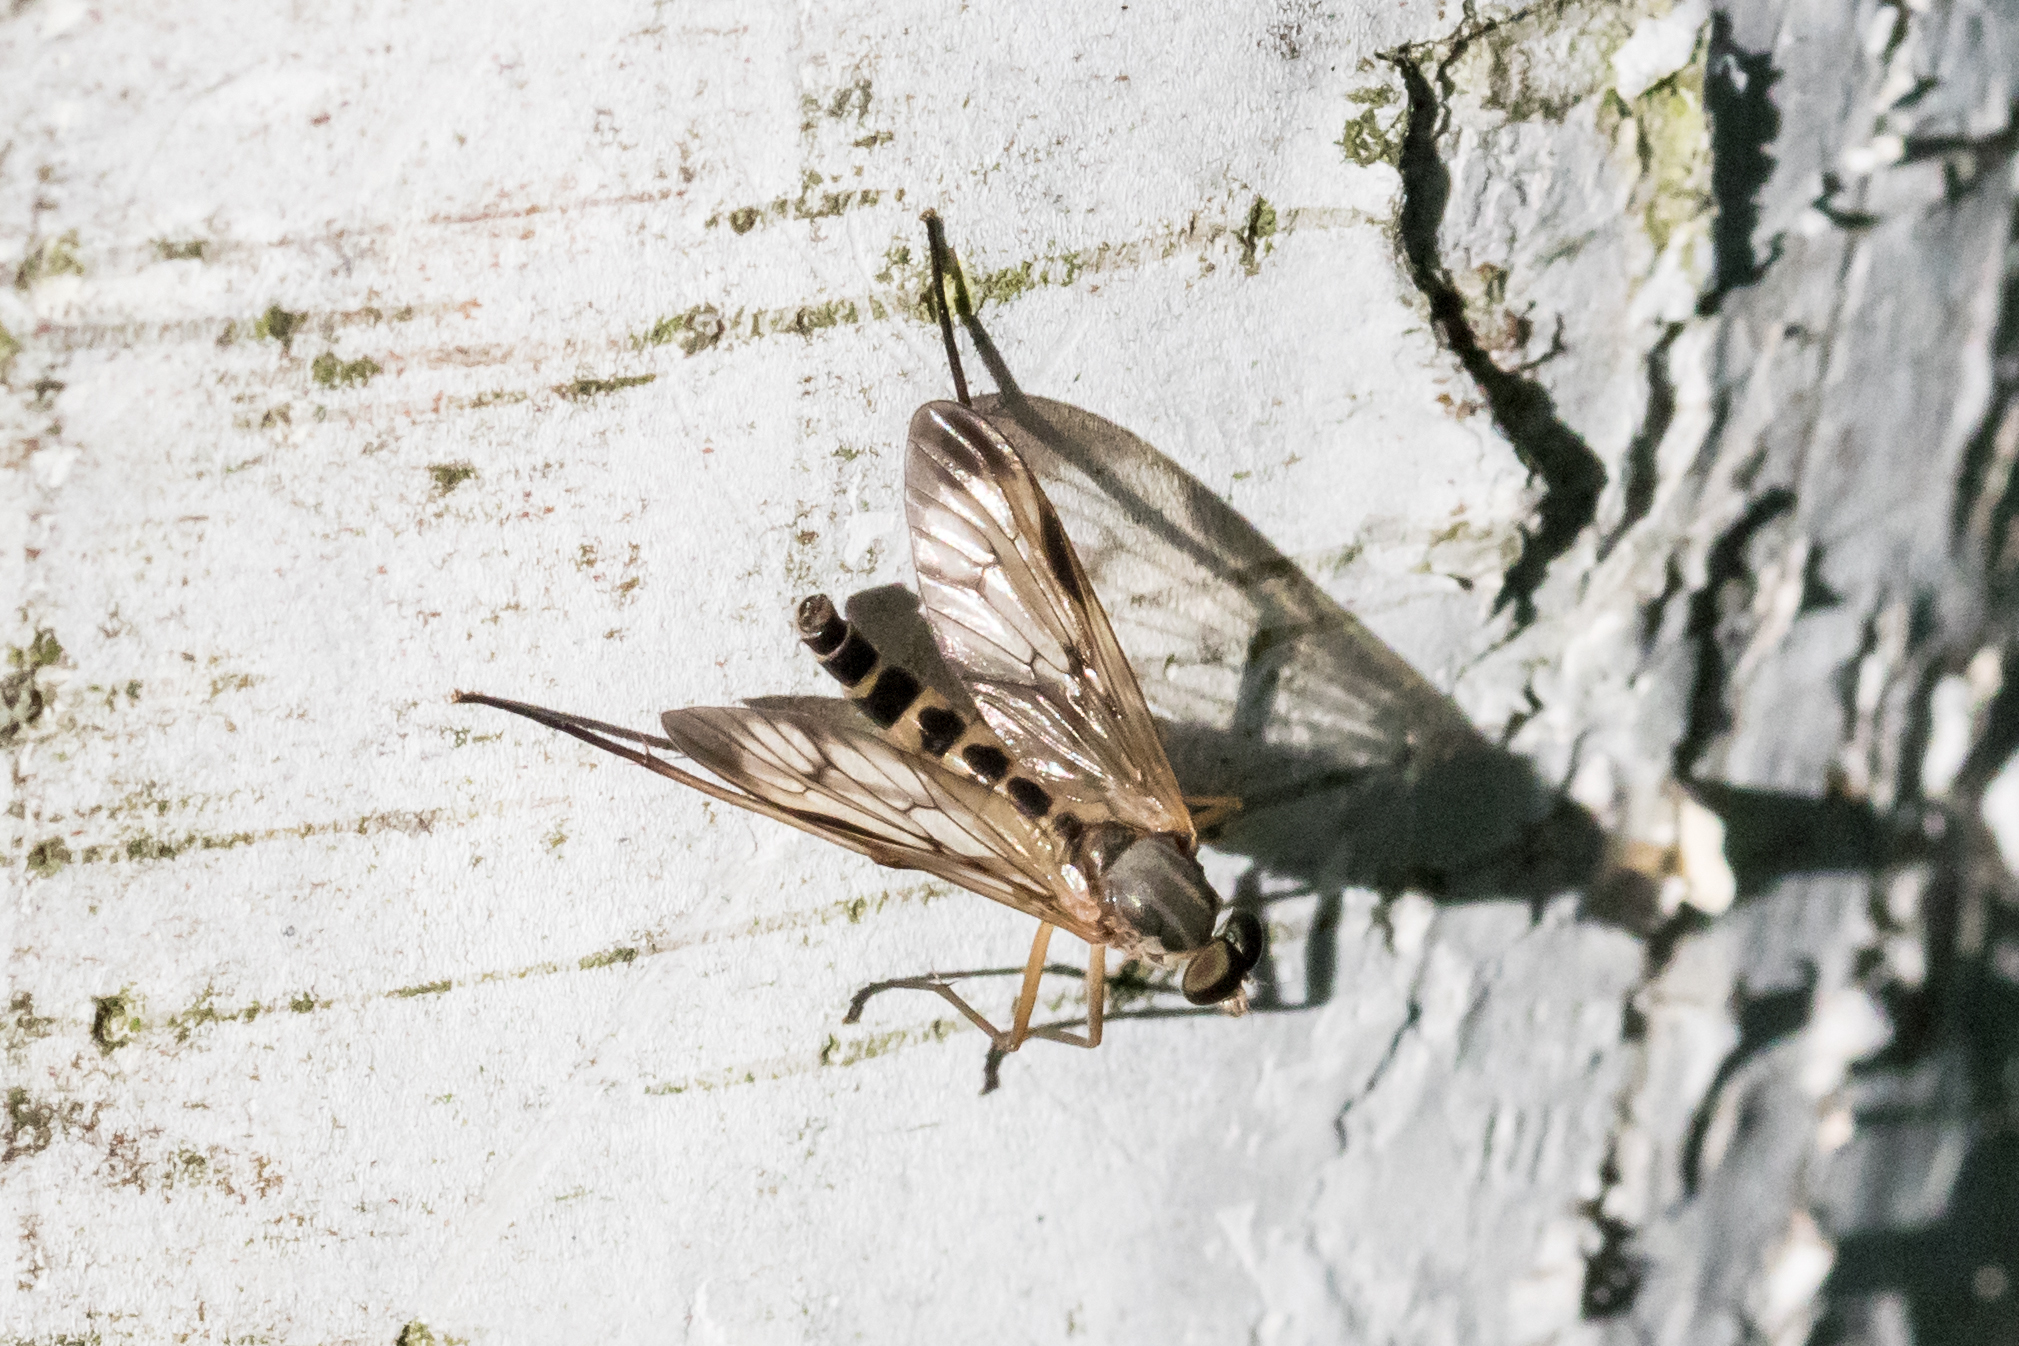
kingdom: Animalia
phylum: Arthropoda
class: Insecta
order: Diptera
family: Rhagionidae
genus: Rhagio
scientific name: Rhagio scolopacea
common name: Downlooker snipefly
